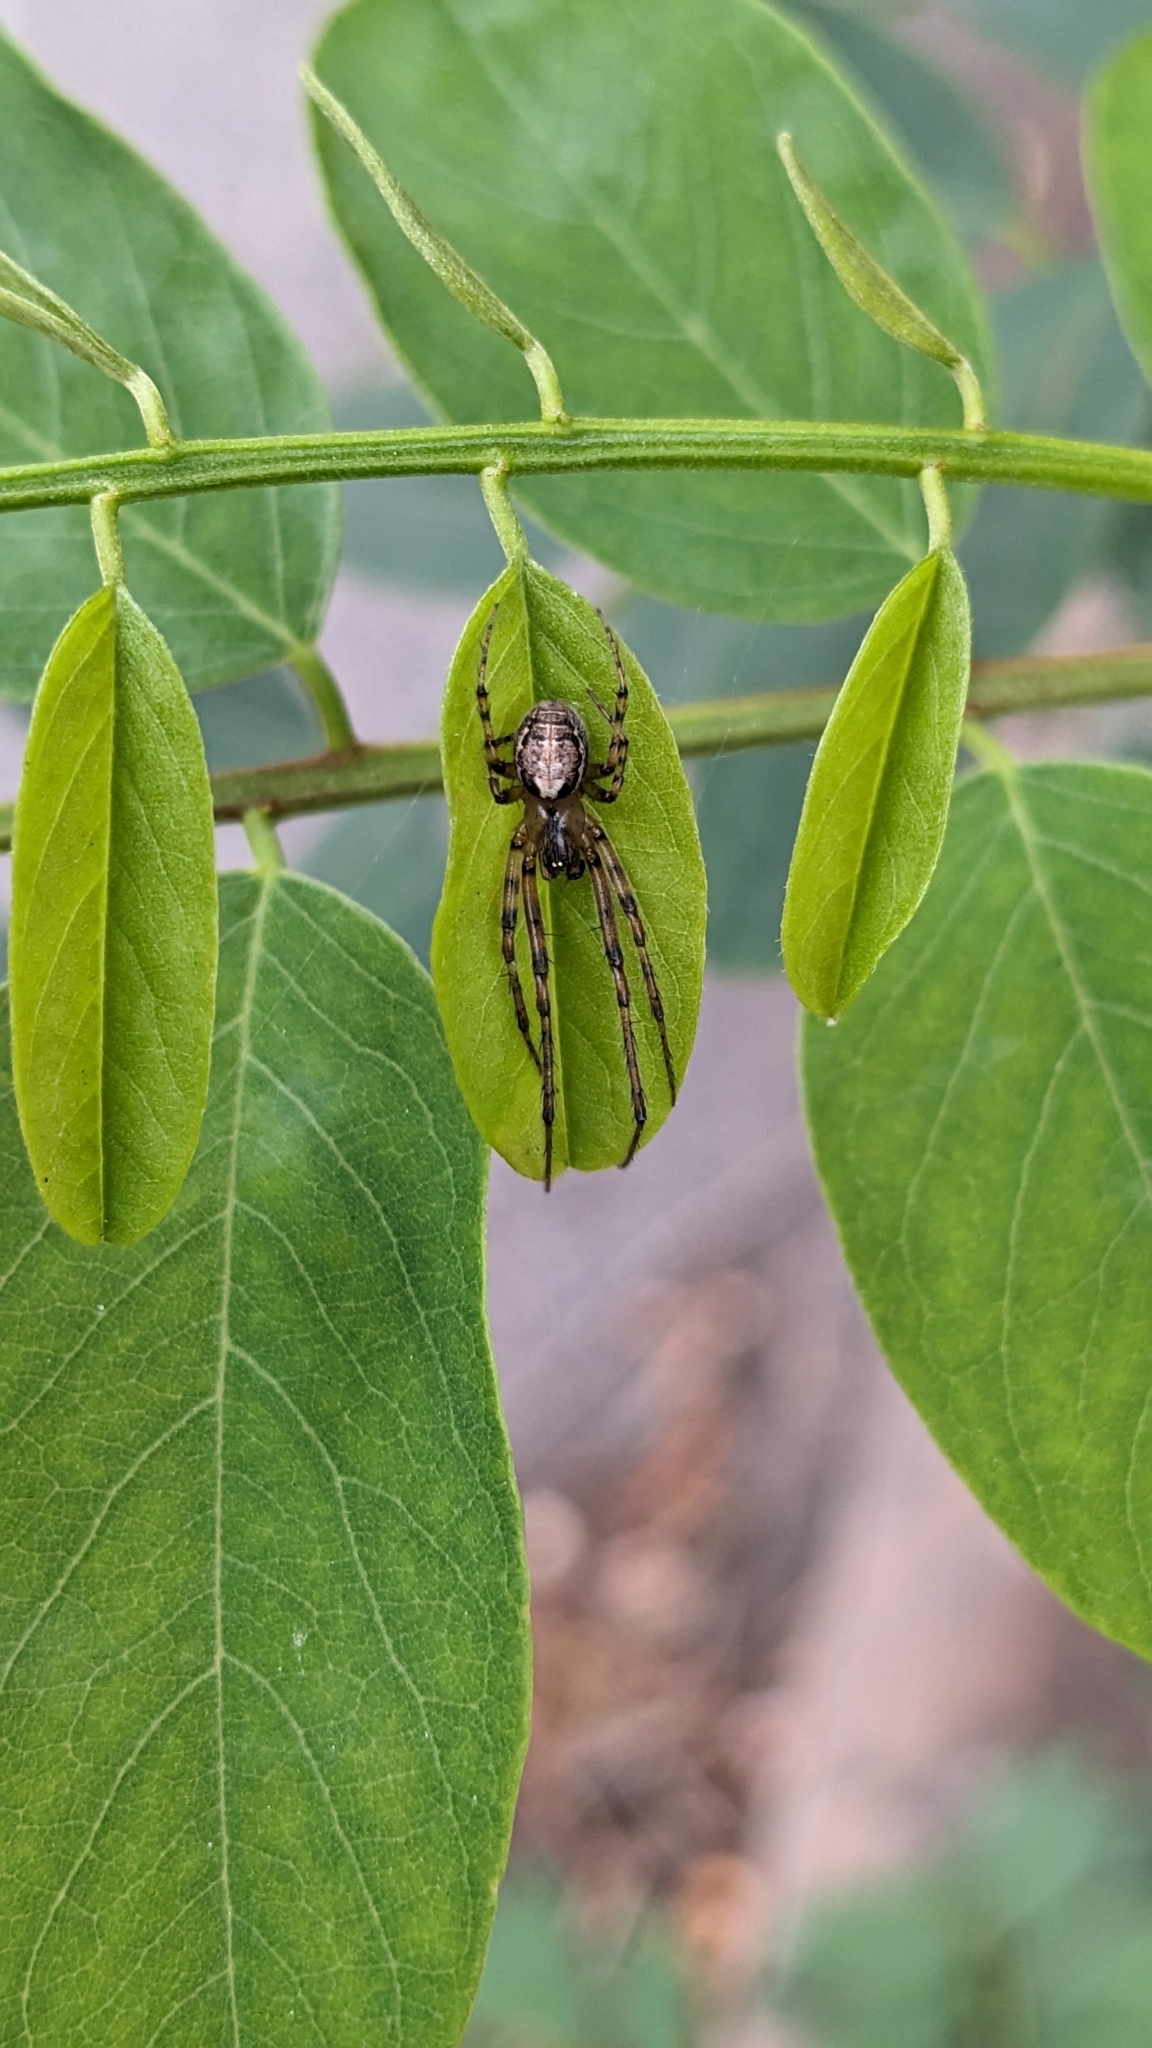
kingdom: Animalia
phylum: Arthropoda
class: Arachnida
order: Araneae
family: Araneidae
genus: Zygiella
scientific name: Zygiella x-notata
